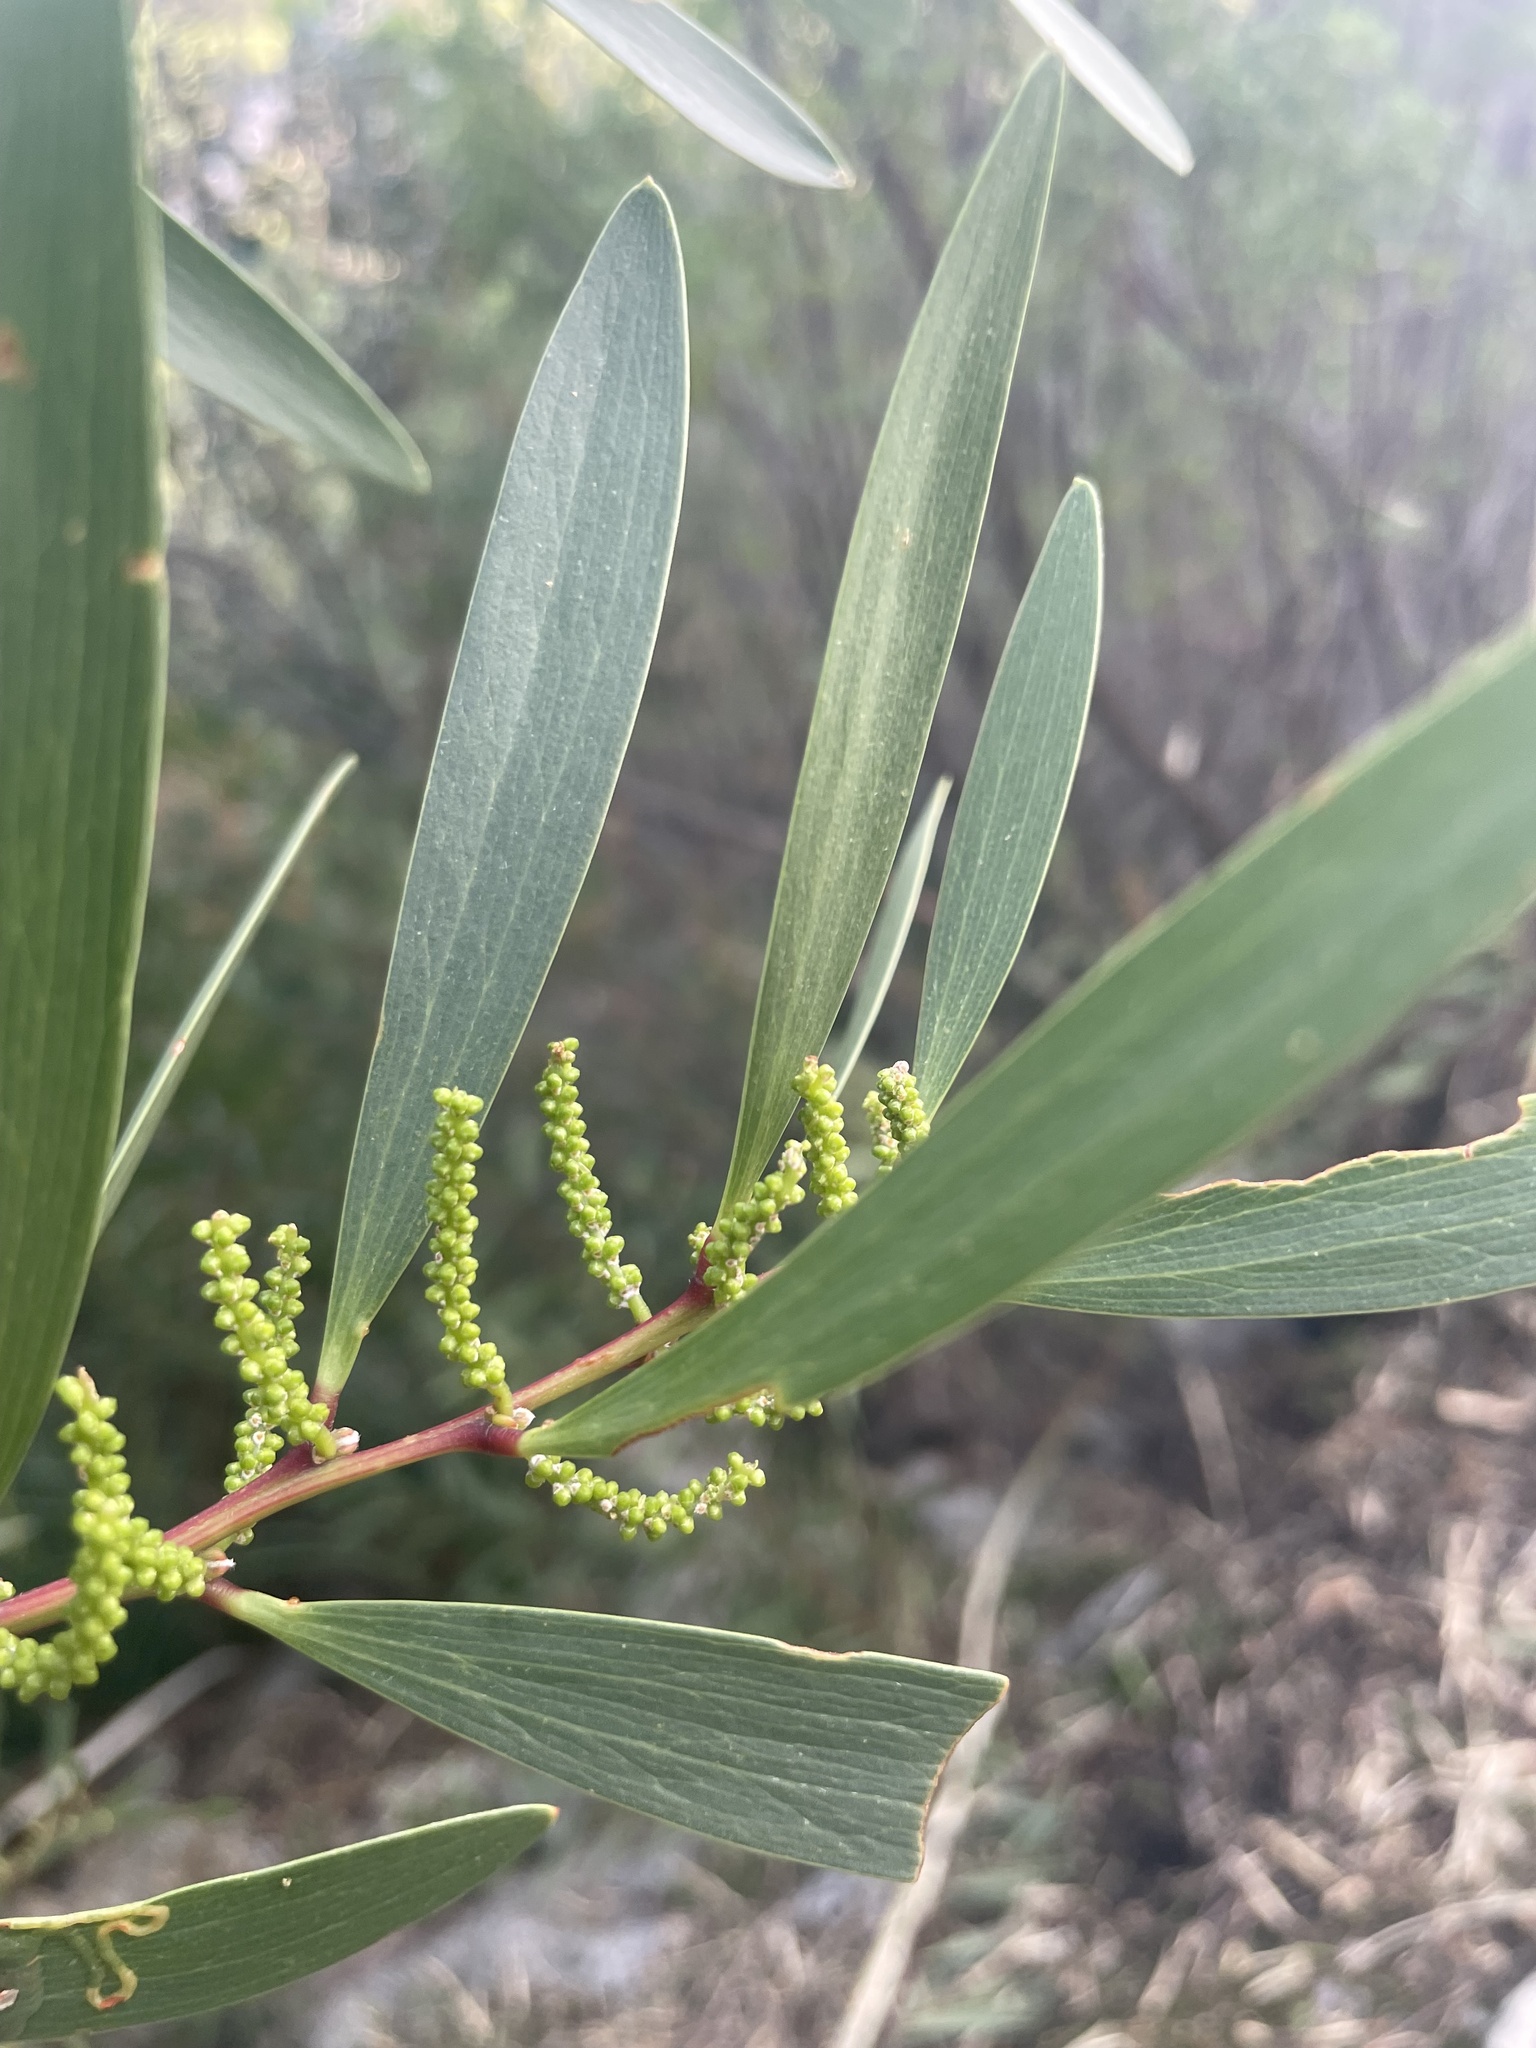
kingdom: Plantae
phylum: Tracheophyta
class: Magnoliopsida
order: Fabales
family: Fabaceae
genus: Acacia
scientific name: Acacia longifolia
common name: Sydney golden wattle
